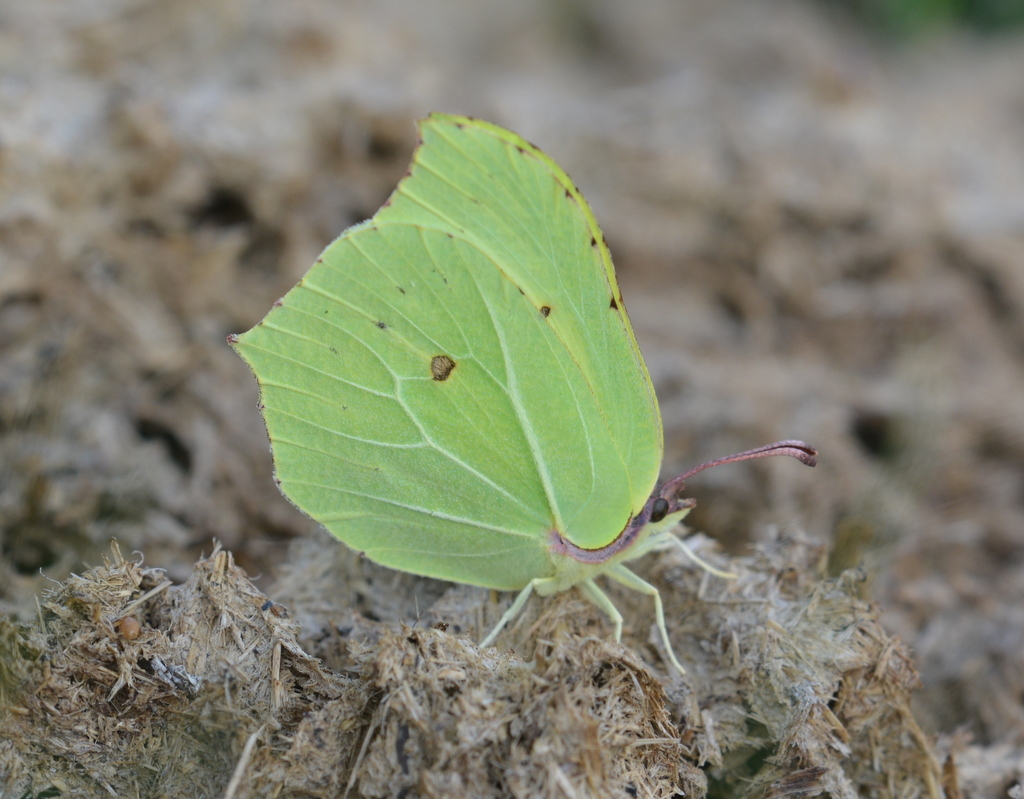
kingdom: Animalia
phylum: Arthropoda
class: Insecta
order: Lepidoptera
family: Pieridae
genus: Gonepteryx
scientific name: Gonepteryx rhamni
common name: Brimstone
